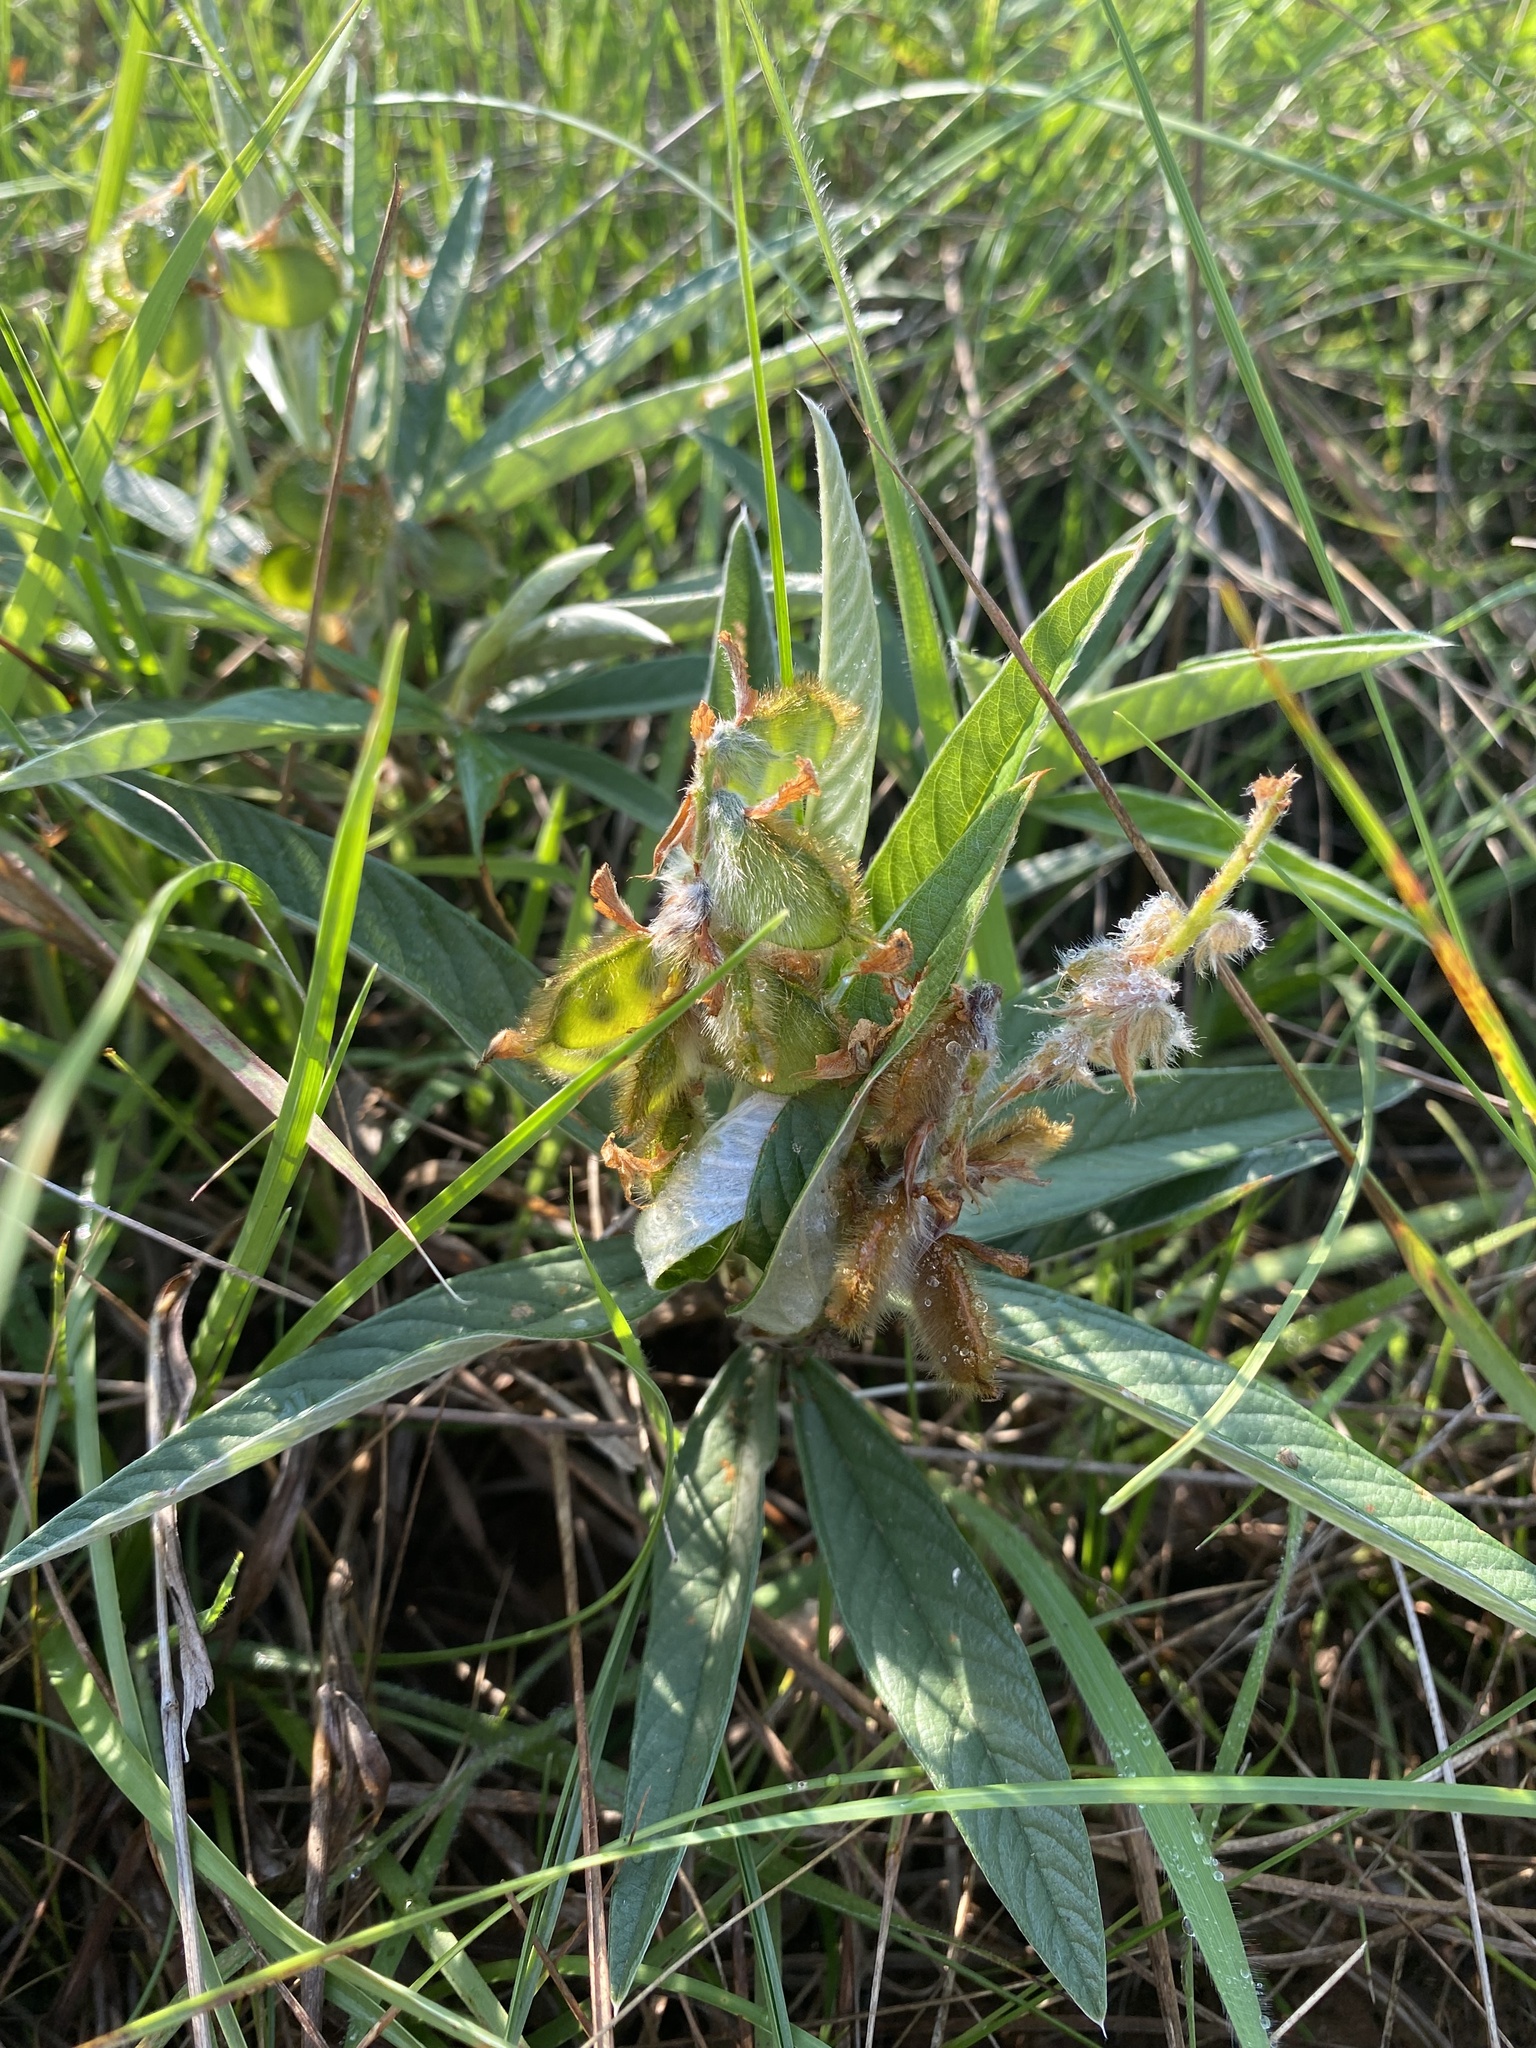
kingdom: Plantae
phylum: Tracheophyta
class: Magnoliopsida
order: Fabales
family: Fabaceae
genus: Eriosema
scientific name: Eriosema salignum
